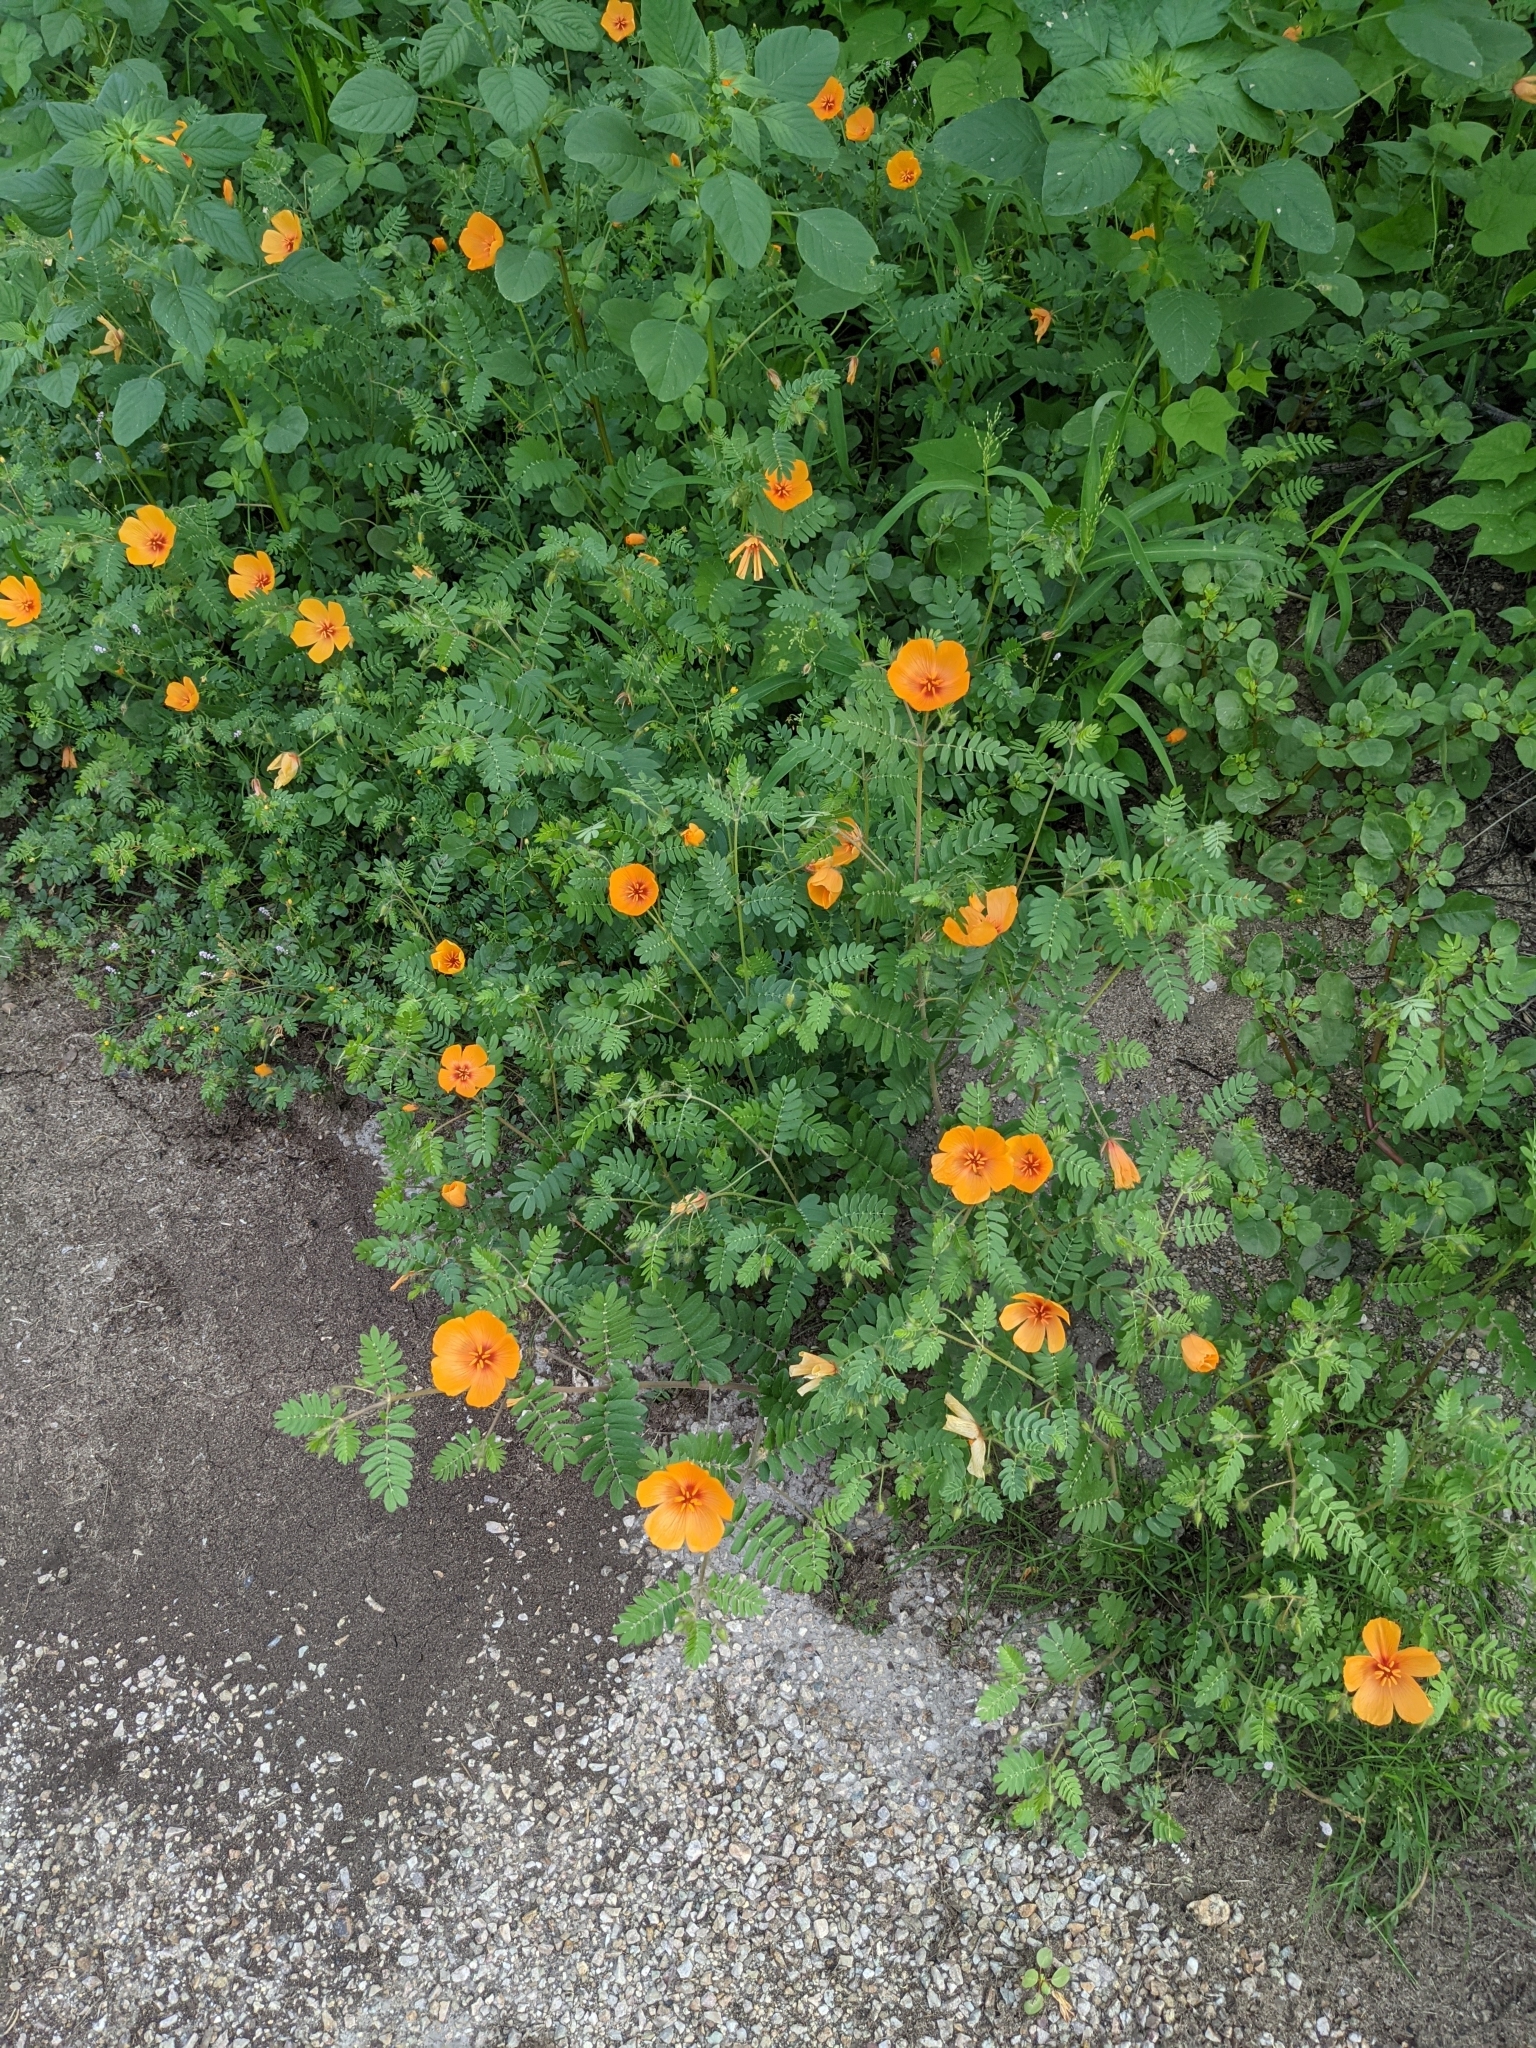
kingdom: Plantae
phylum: Tracheophyta
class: Magnoliopsida
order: Zygophyllales
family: Zygophyllaceae
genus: Kallstroemia
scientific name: Kallstroemia grandiflora
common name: Arizona-poppy
